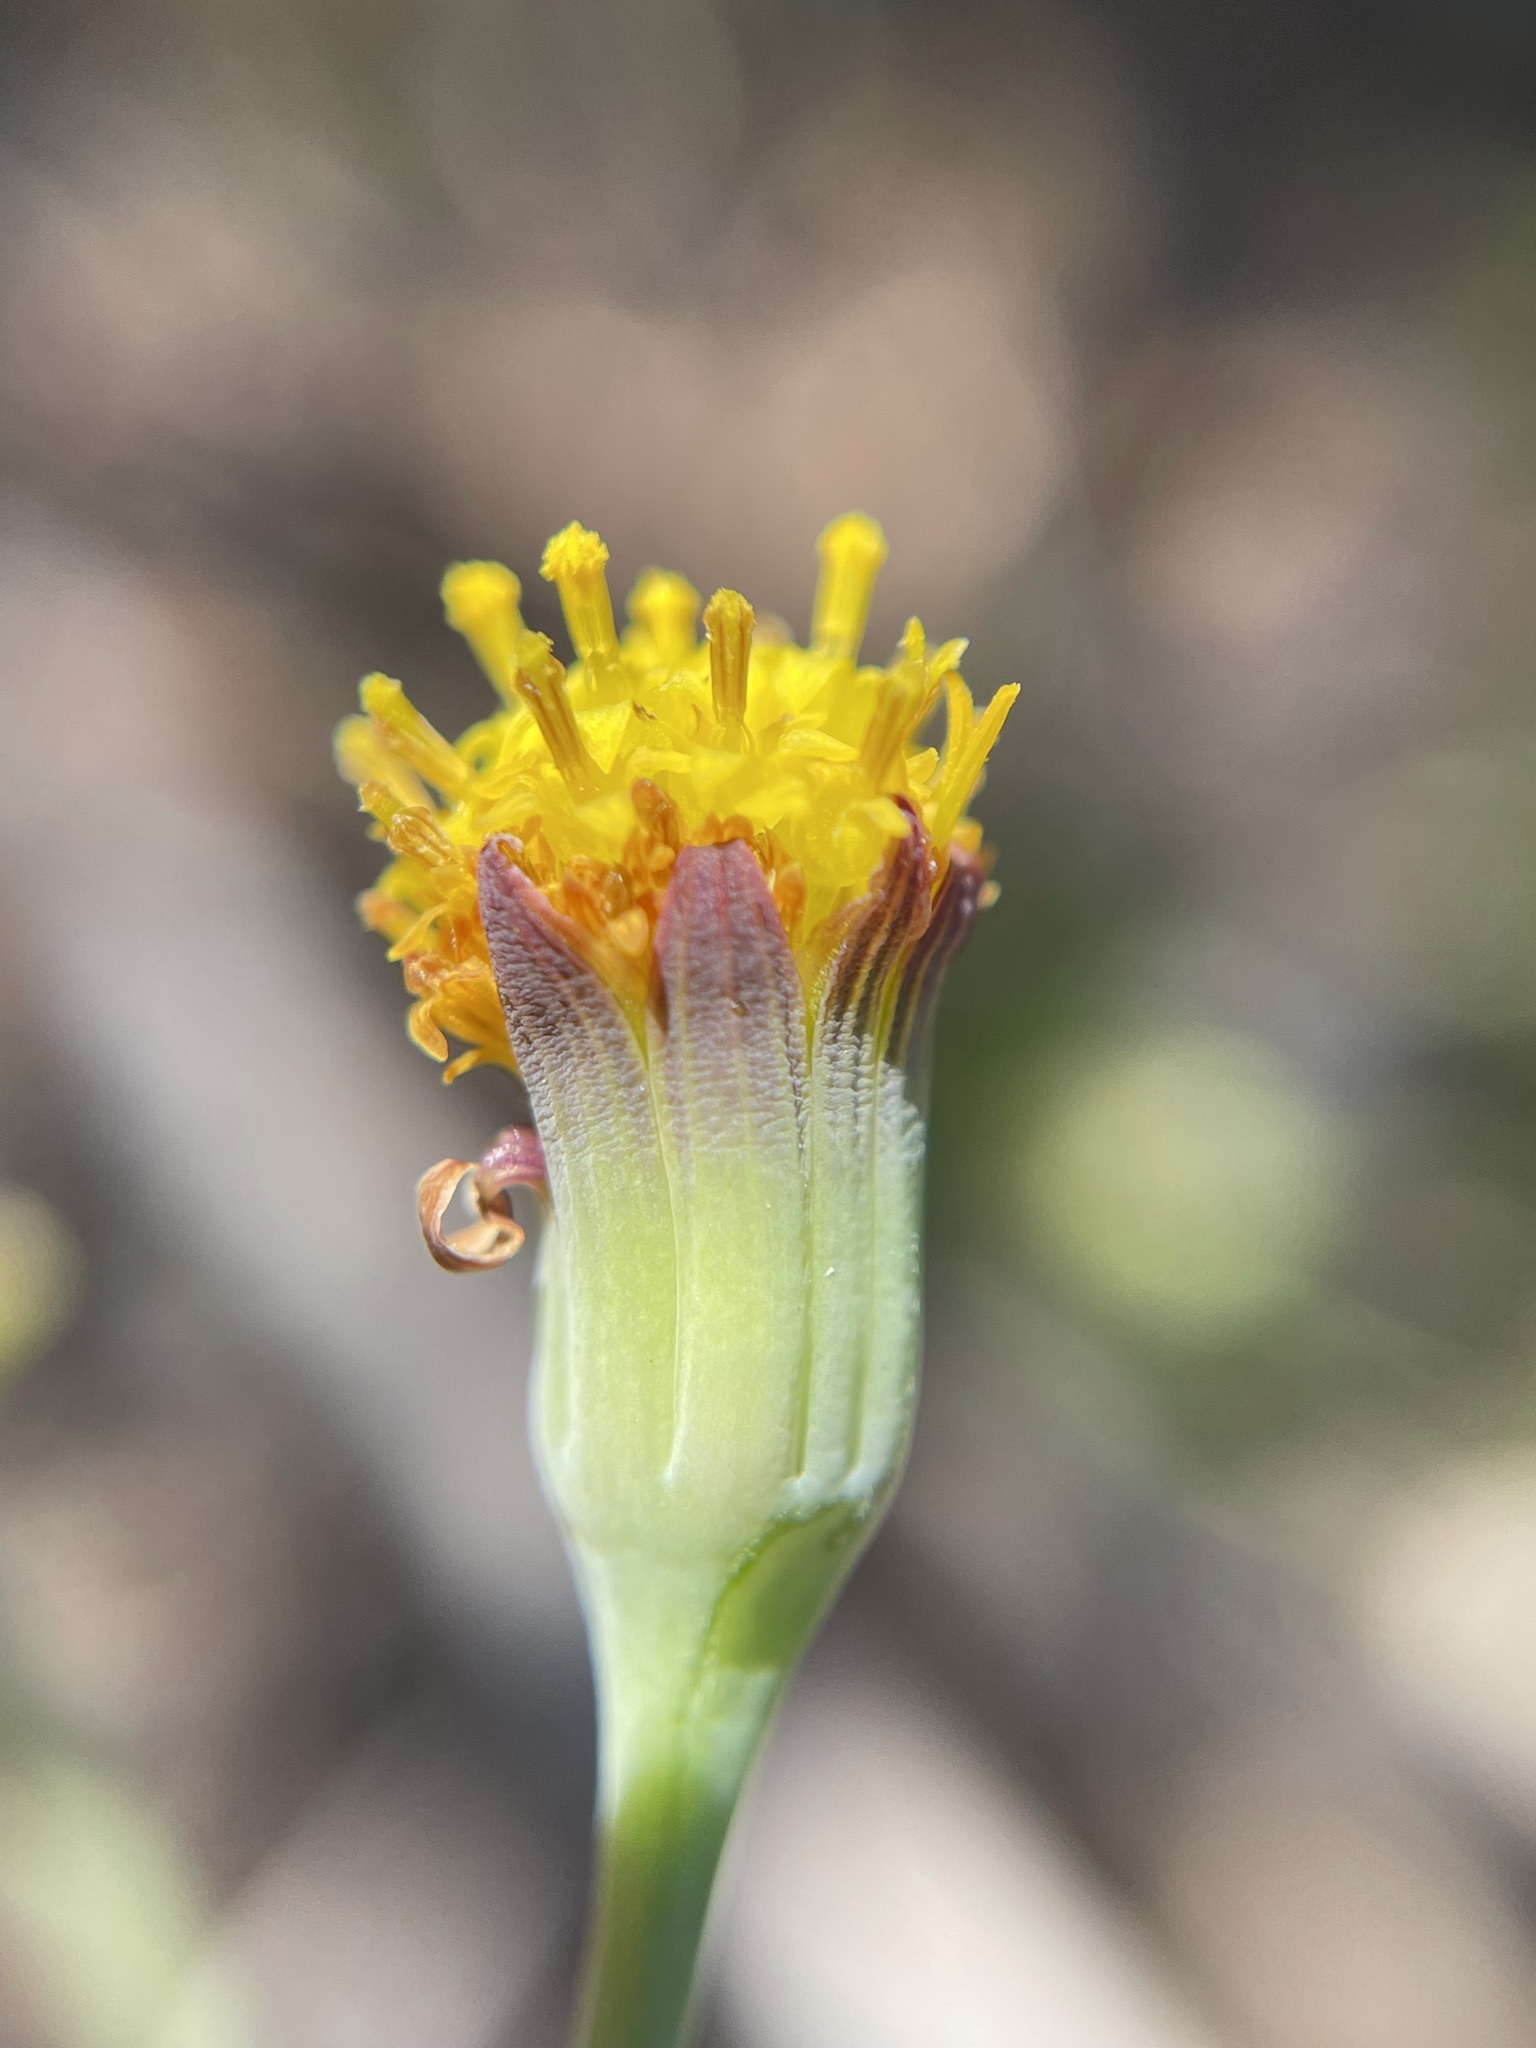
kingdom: Plantae
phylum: Tracheophyta
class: Magnoliopsida
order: Asterales
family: Asteraceae
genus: Othonna
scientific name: Othonna undulosa
